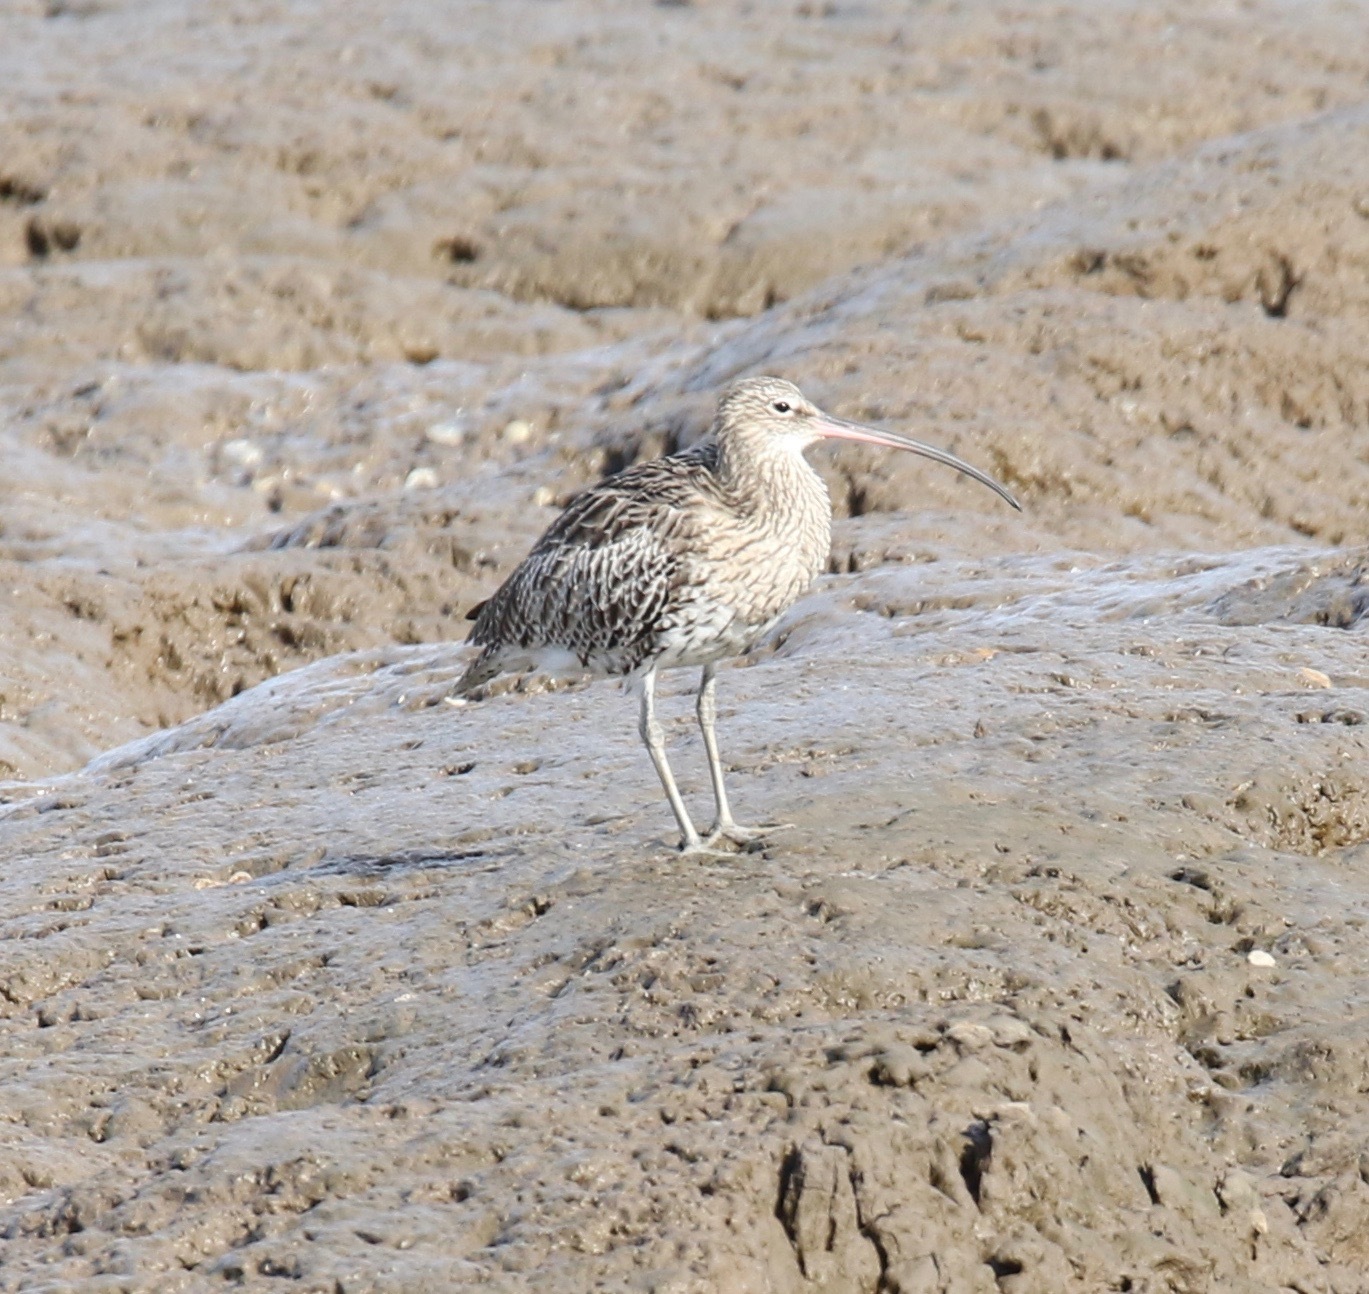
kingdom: Animalia
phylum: Chordata
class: Aves
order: Charadriiformes
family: Scolopacidae
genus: Numenius
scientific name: Numenius arquata
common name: Eurasian curlew
